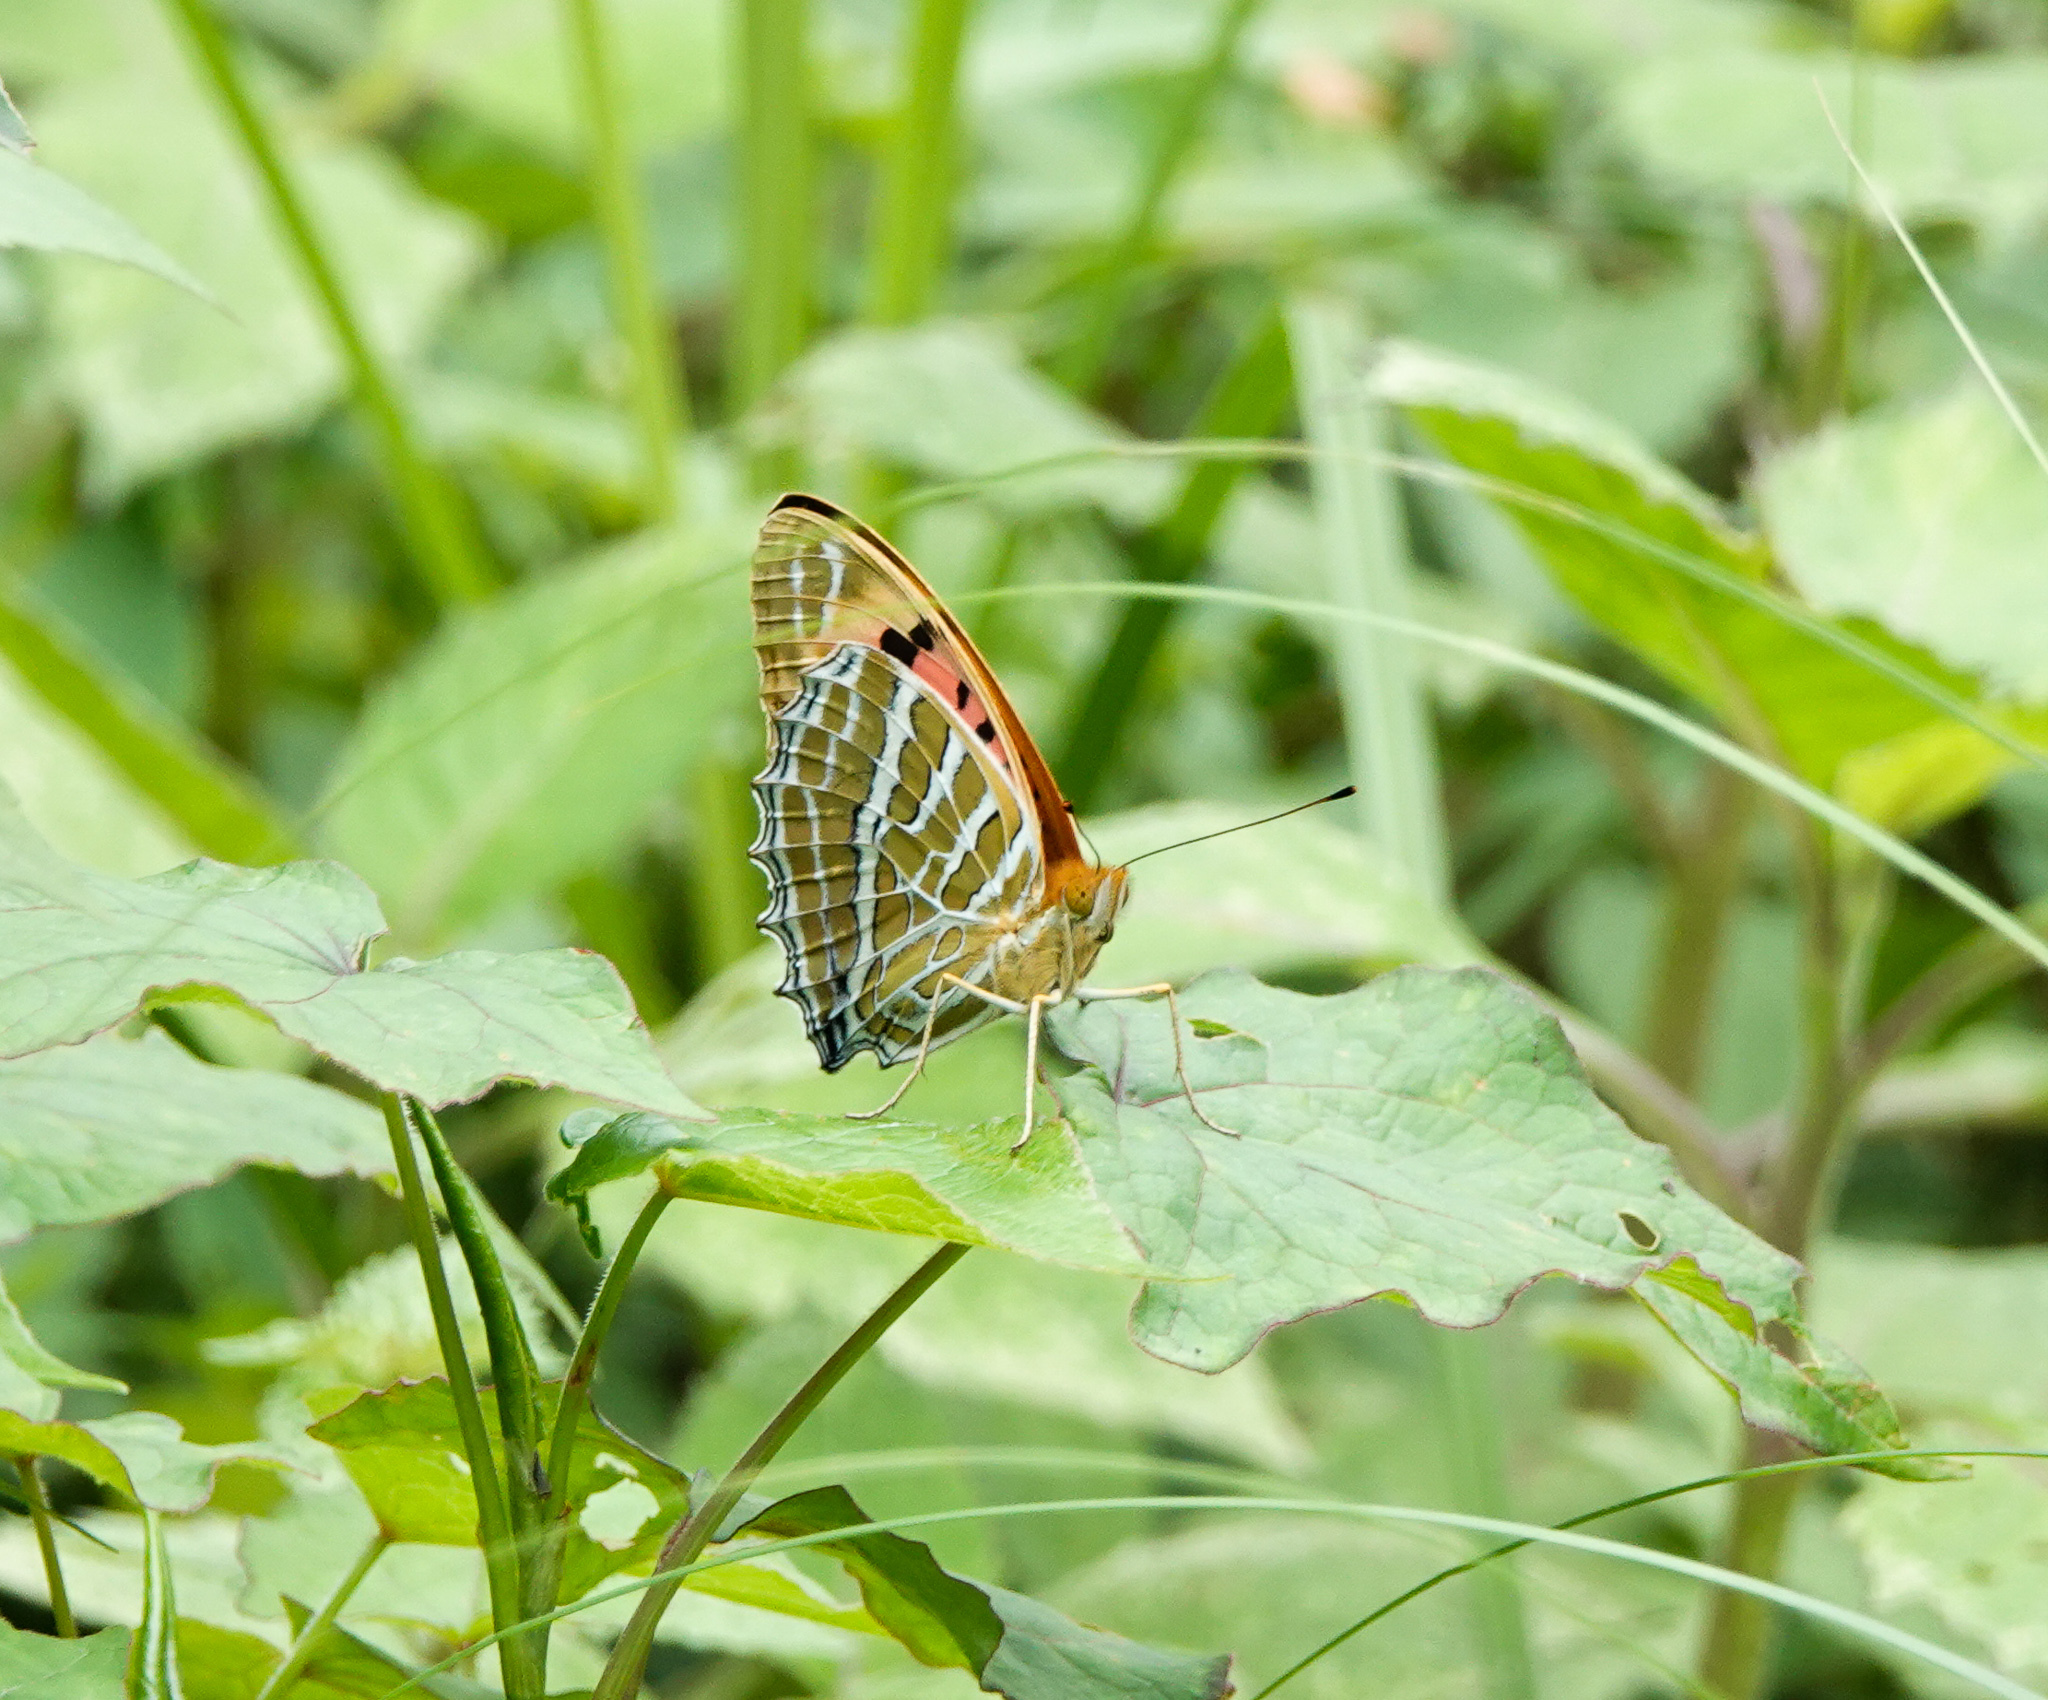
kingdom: Animalia
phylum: Arthropoda
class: Insecta
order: Lepidoptera
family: Nymphalidae
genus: Childrena
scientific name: Childrena childreni
